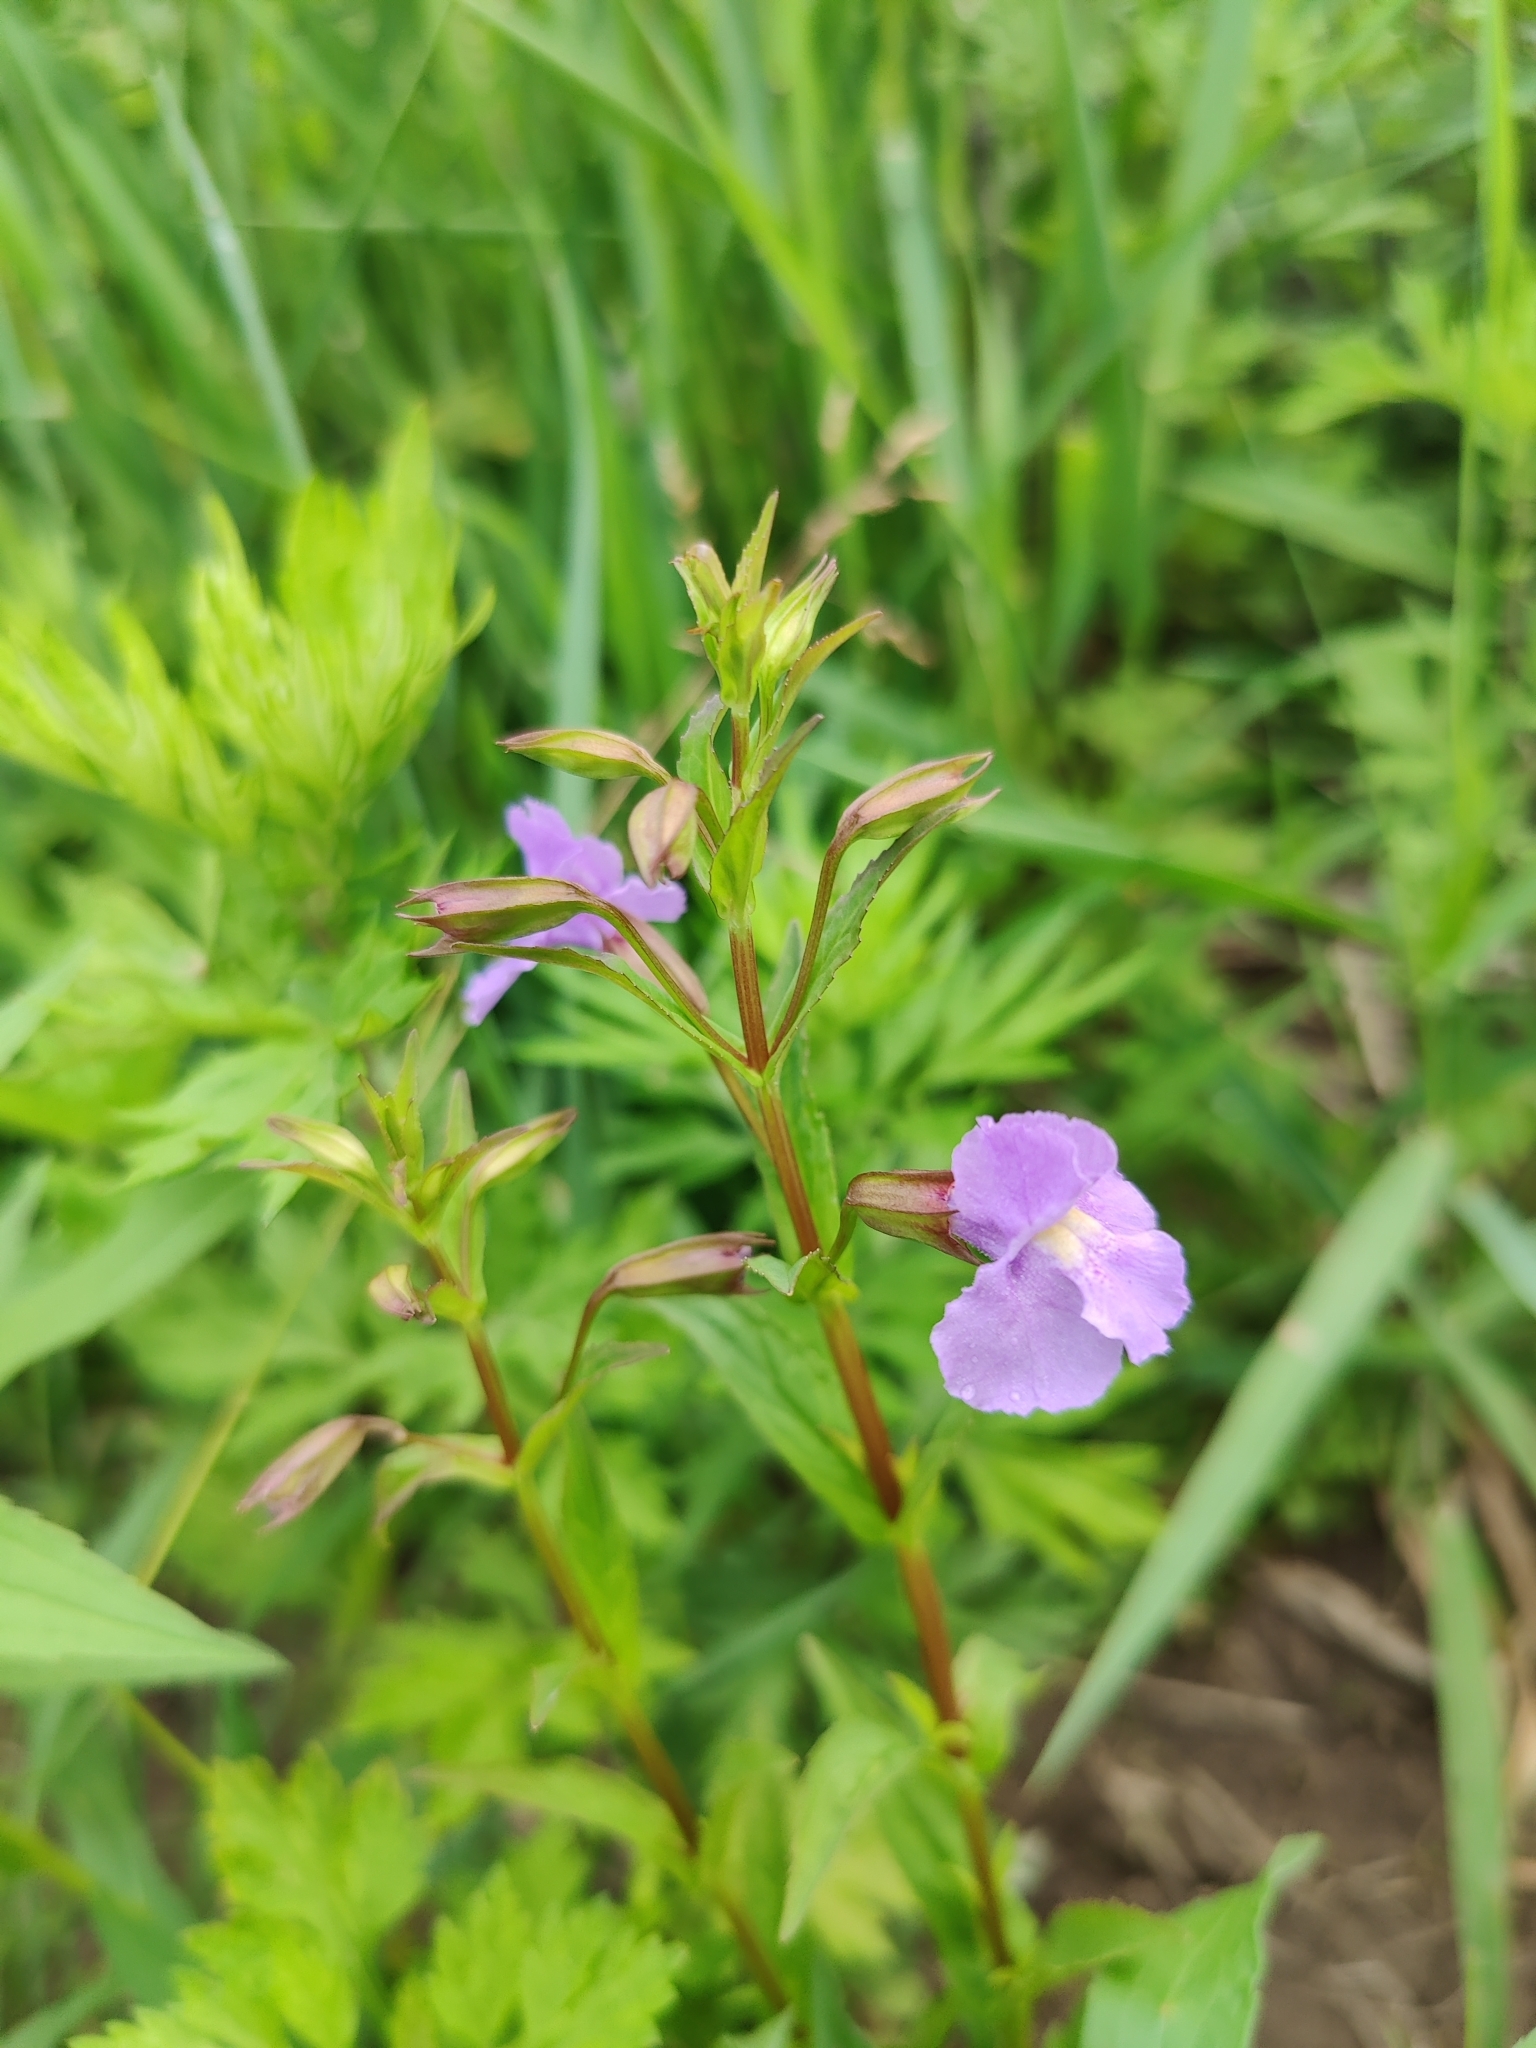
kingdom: Plantae
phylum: Tracheophyta
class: Magnoliopsida
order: Lamiales
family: Phrymaceae
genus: Mimulus
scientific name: Mimulus ringens
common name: Allegheny monkeyflower
